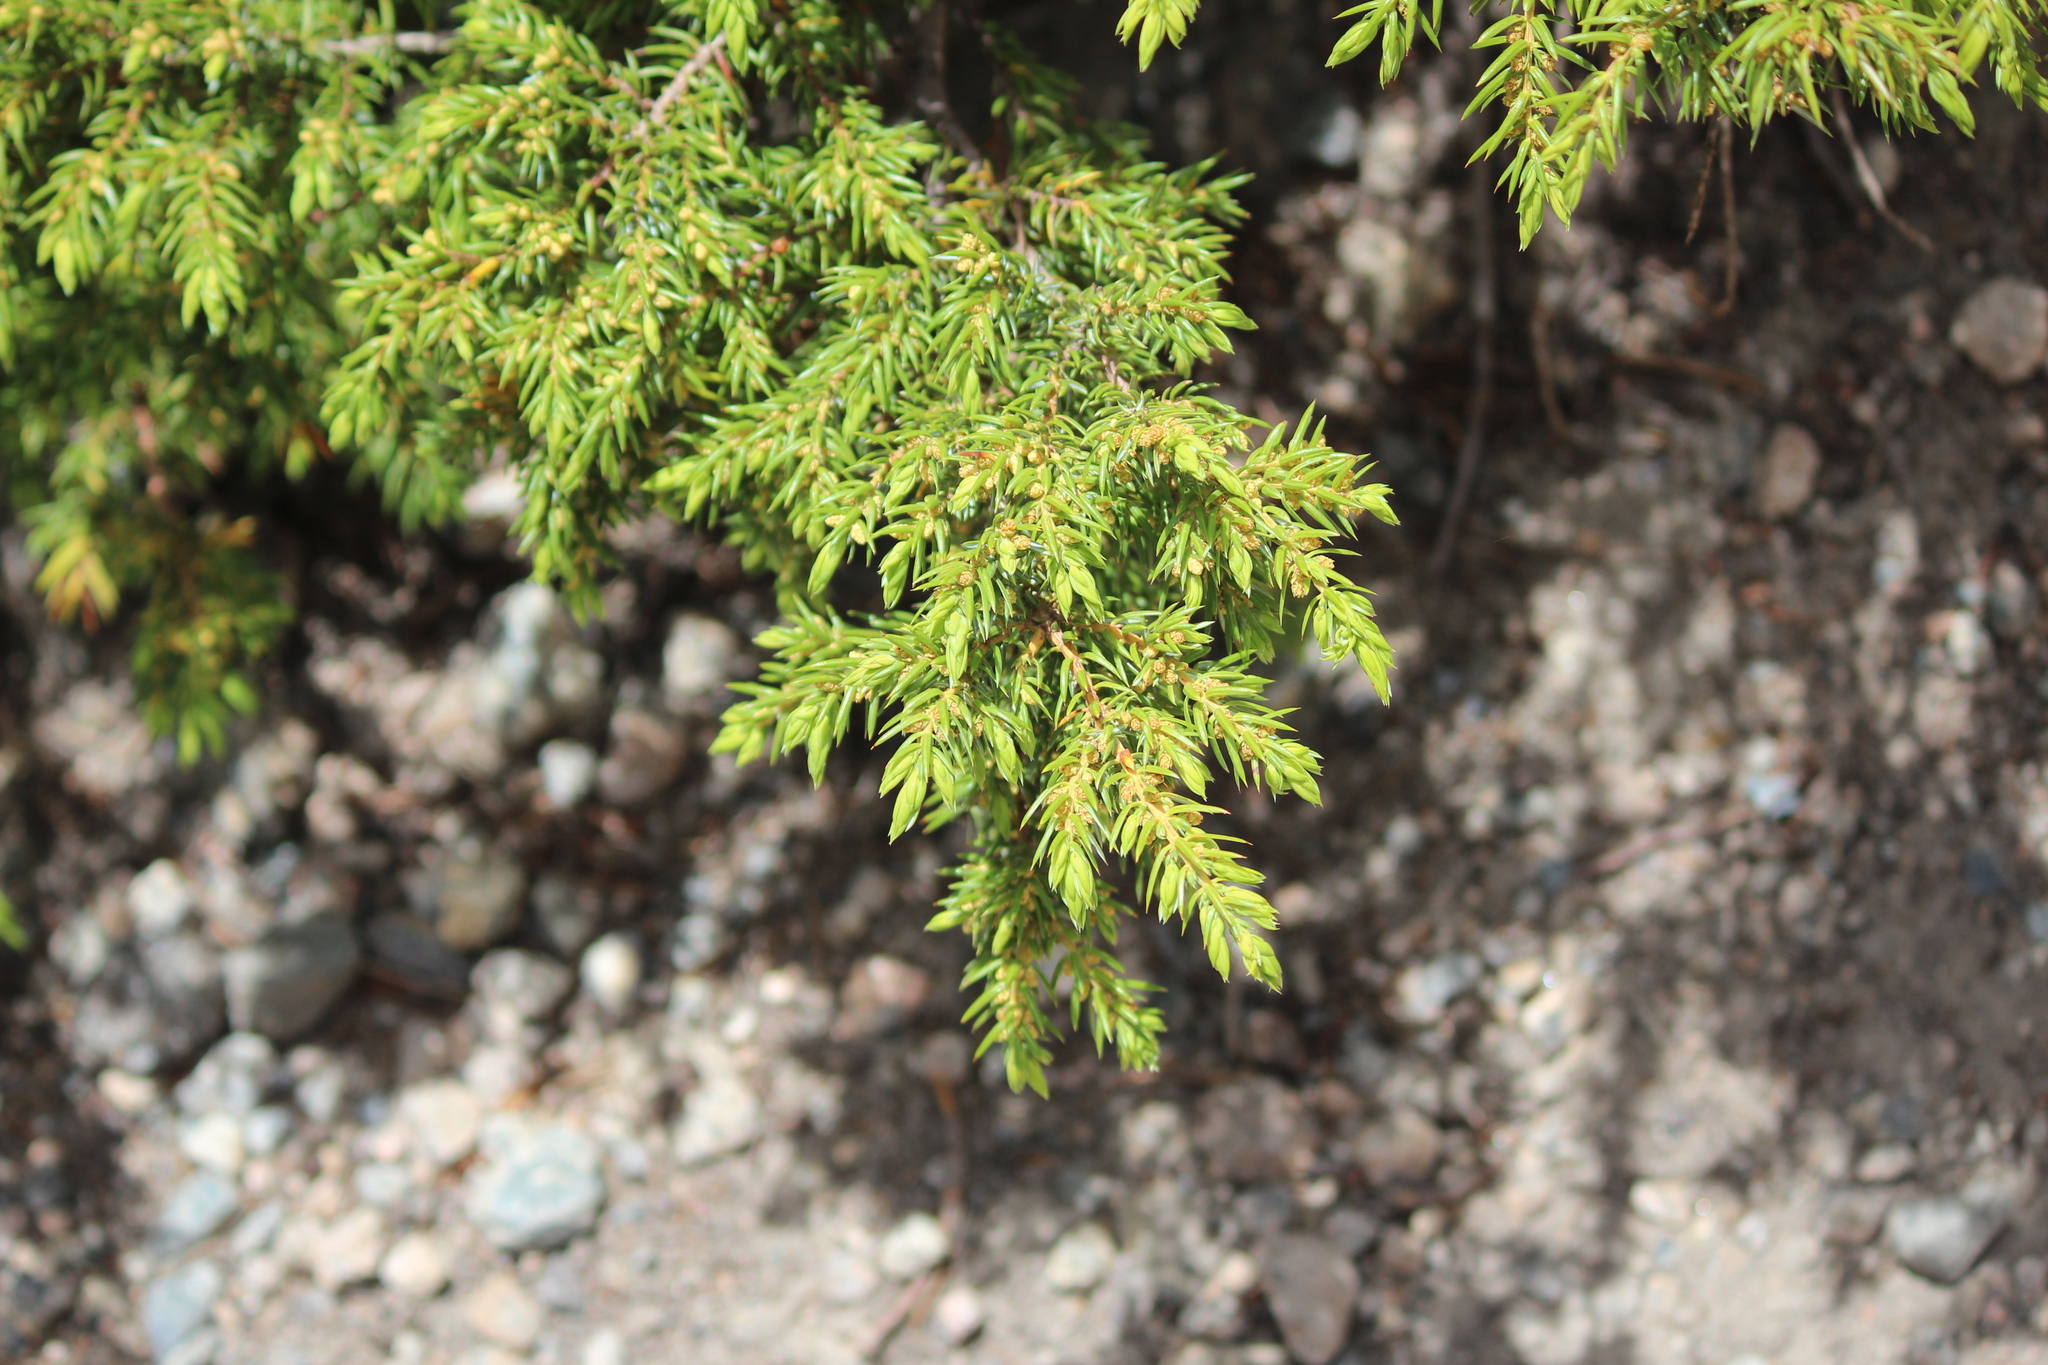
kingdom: Plantae
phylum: Tracheophyta
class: Pinopsida
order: Pinales
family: Cupressaceae
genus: Juniperus
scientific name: Juniperus communis
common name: Common juniper
